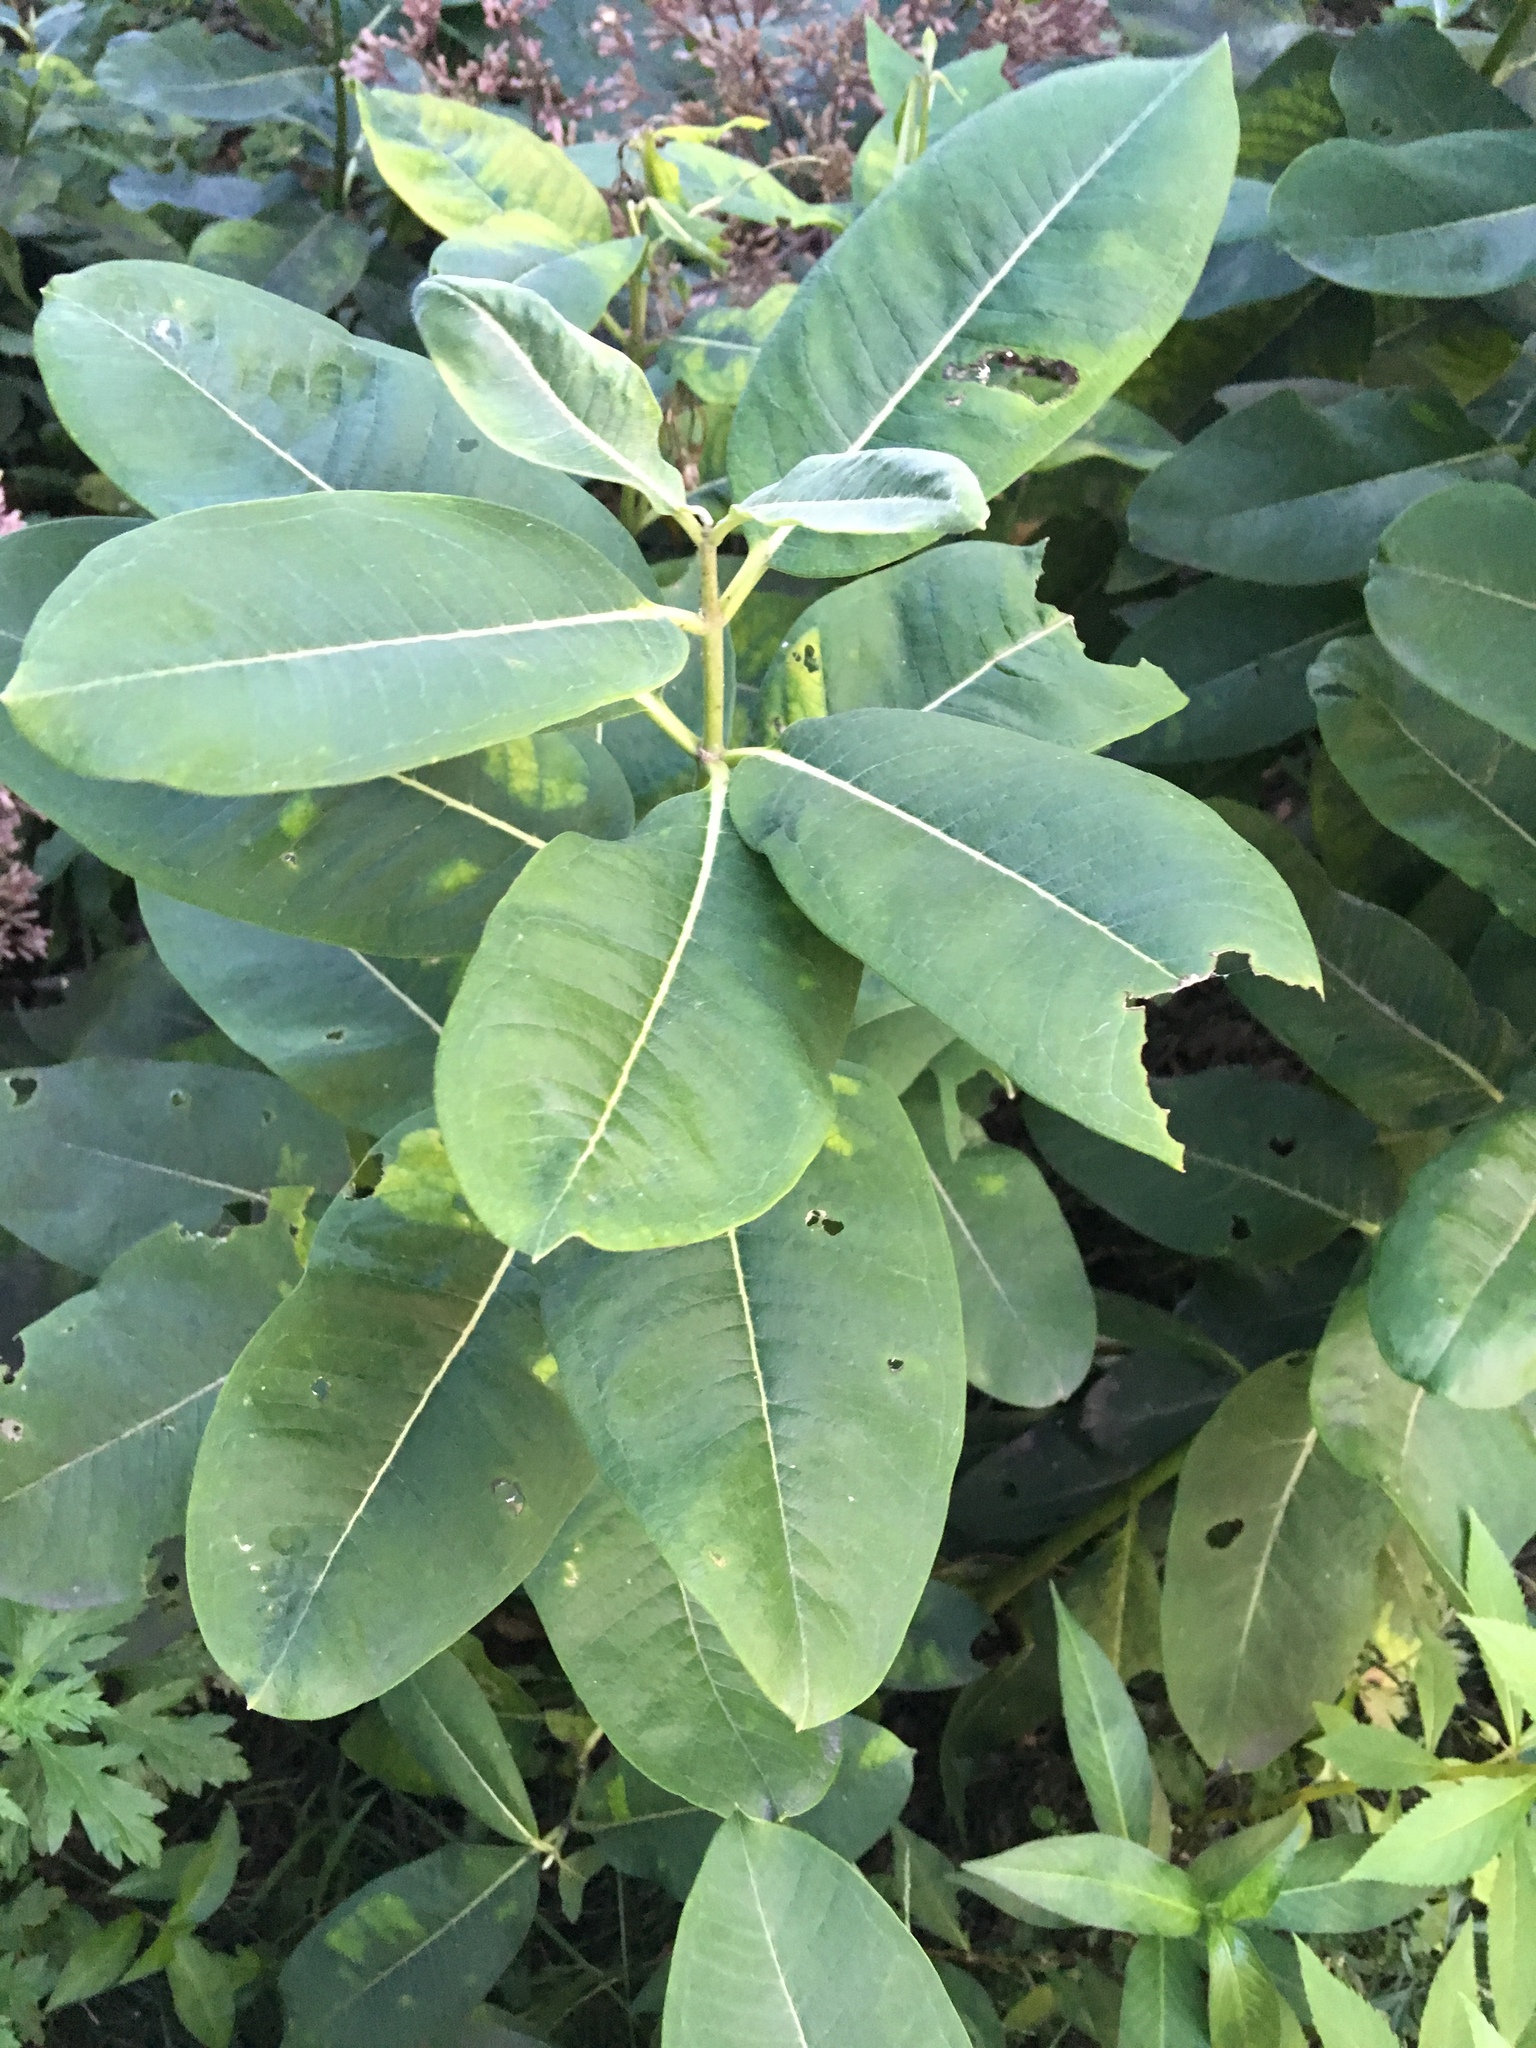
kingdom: Plantae
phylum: Tracheophyta
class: Magnoliopsida
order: Gentianales
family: Apocynaceae
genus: Asclepias
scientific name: Asclepias syriaca
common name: Common milkweed
